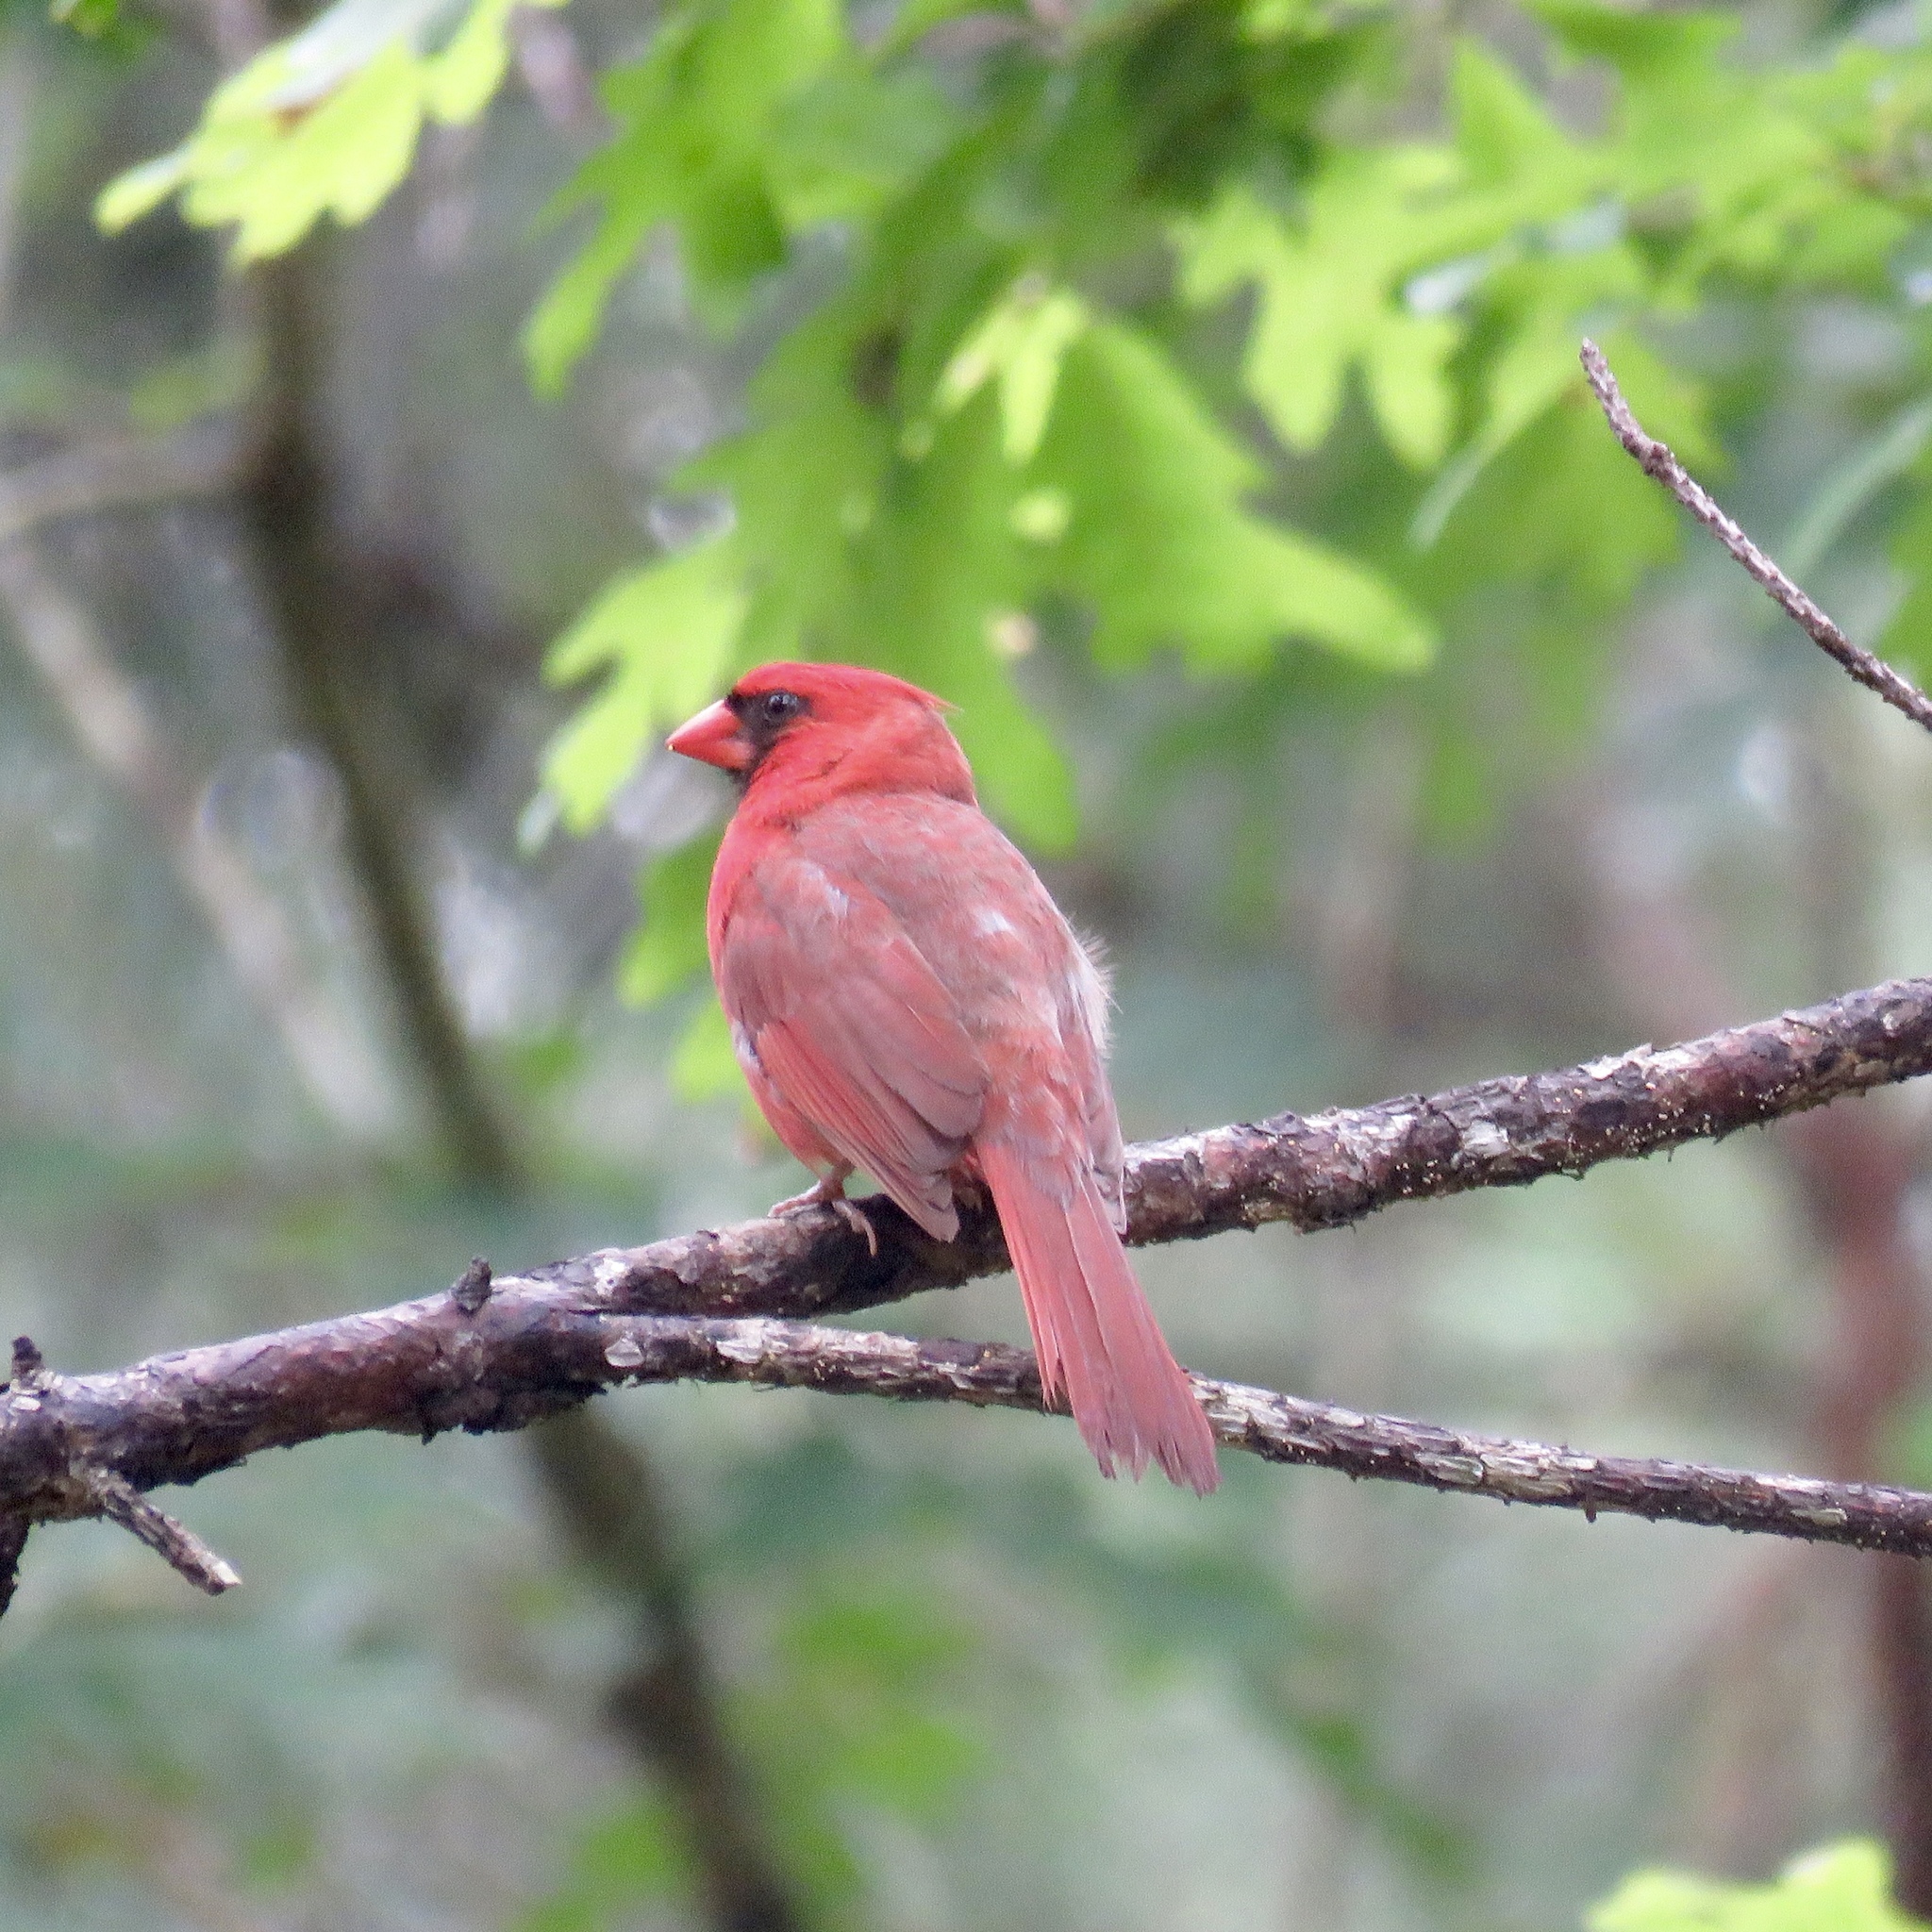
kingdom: Animalia
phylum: Chordata
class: Aves
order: Passeriformes
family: Cardinalidae
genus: Cardinalis
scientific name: Cardinalis cardinalis
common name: Northern cardinal
